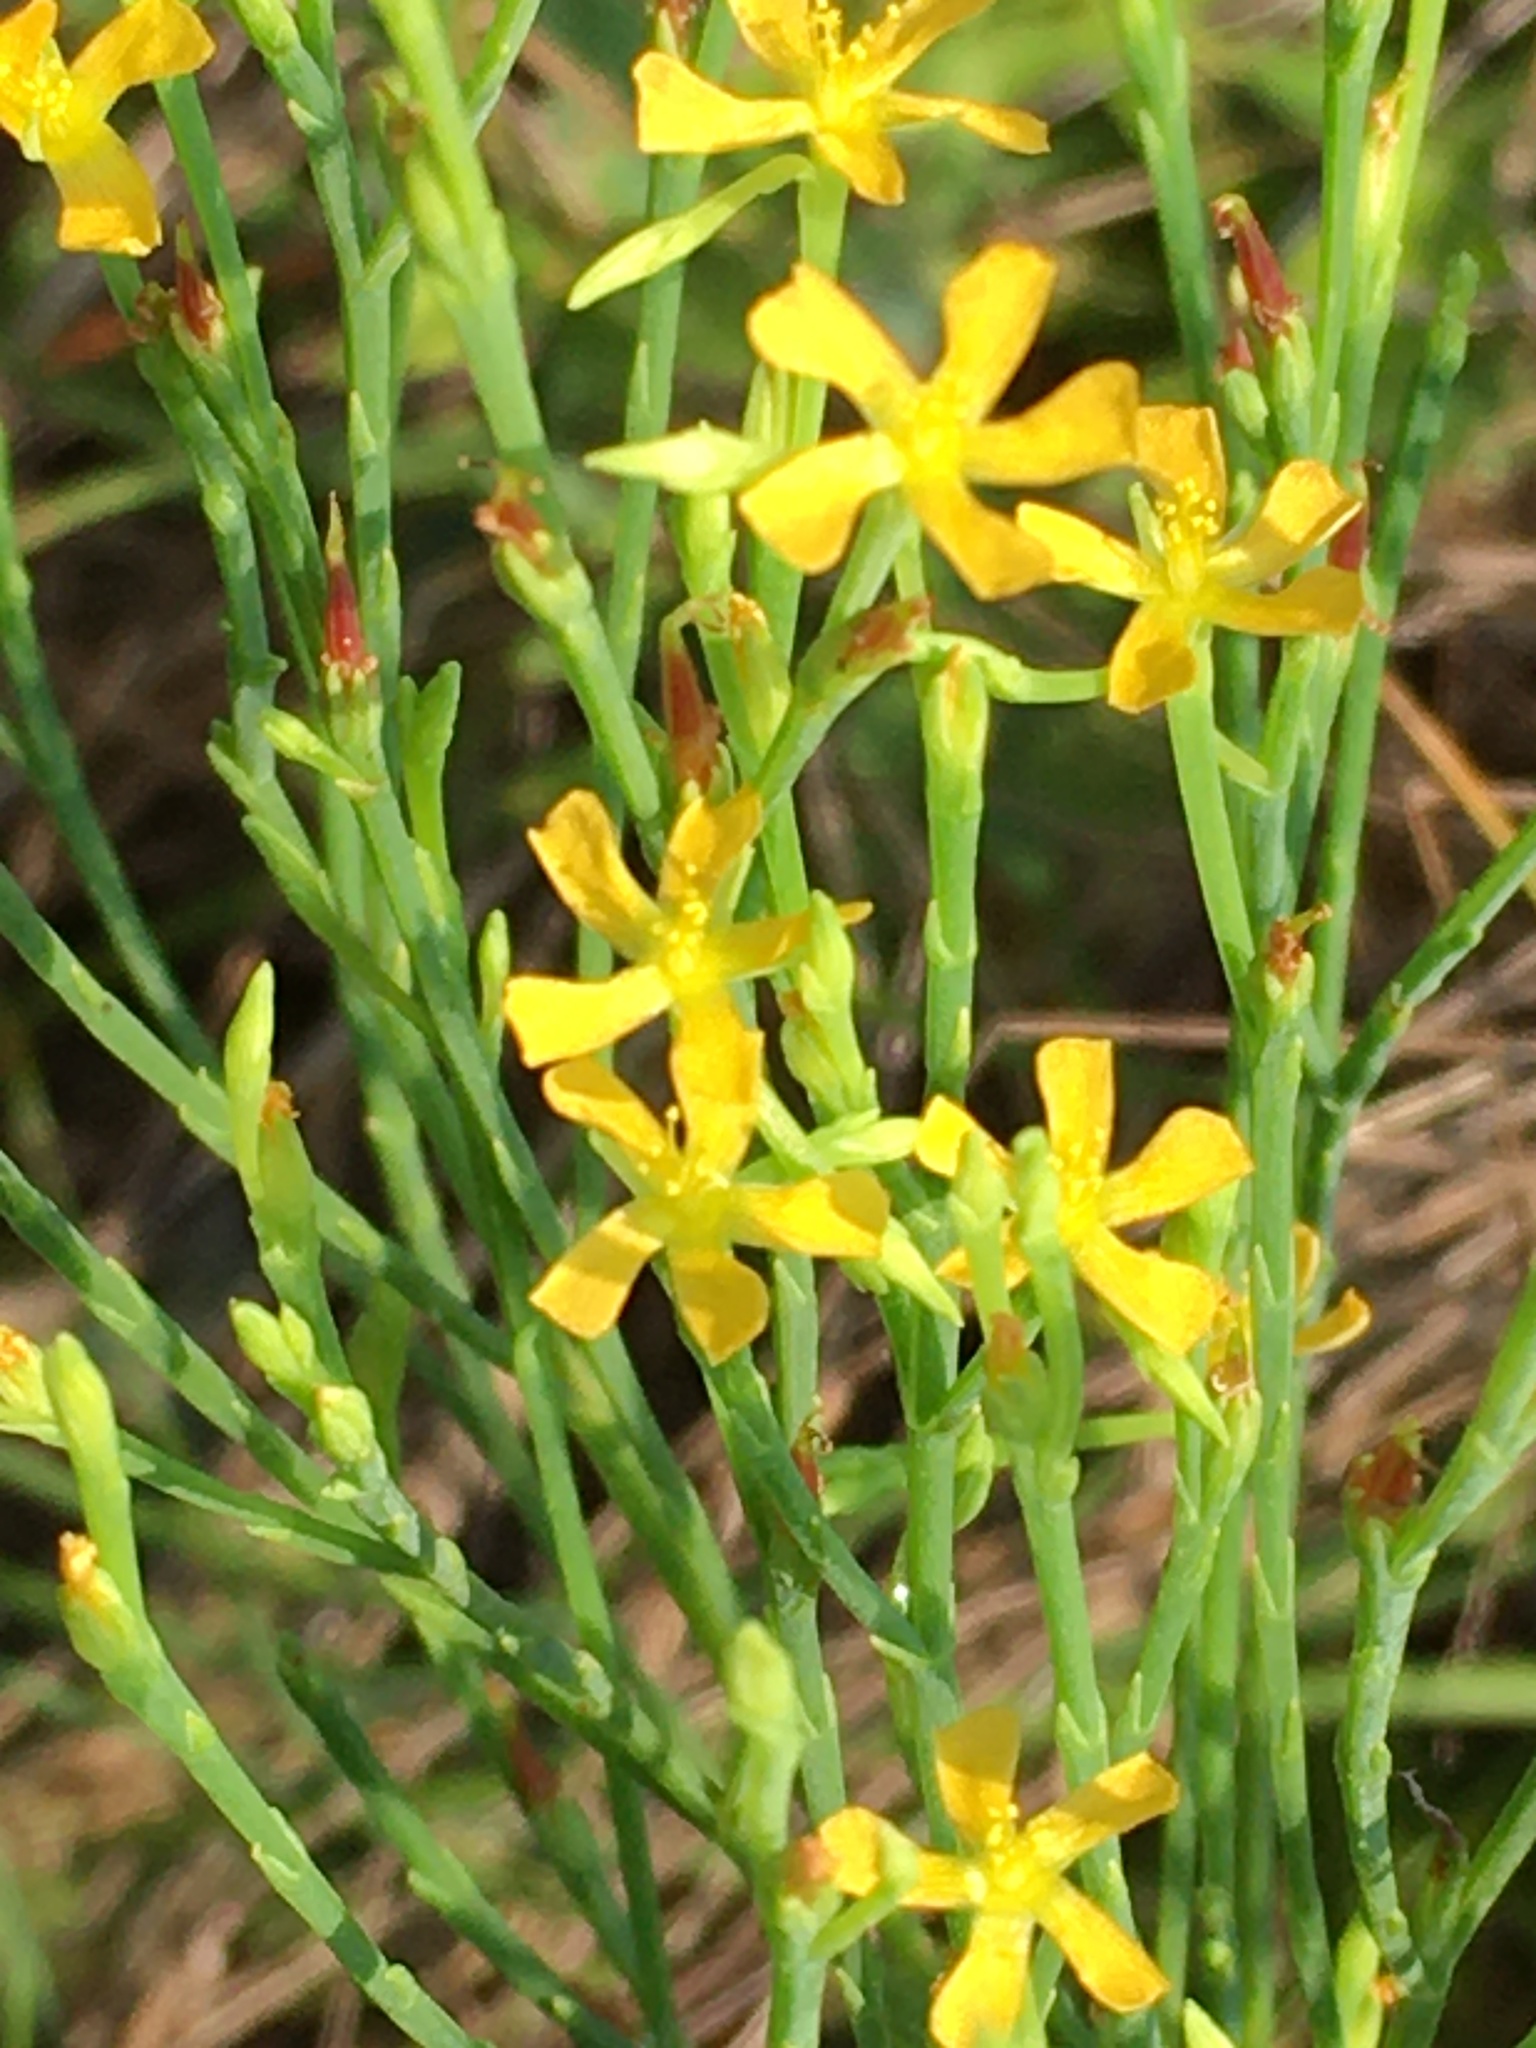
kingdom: Plantae
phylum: Tracheophyta
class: Magnoliopsida
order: Malpighiales
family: Hypericaceae
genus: Hypericum
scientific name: Hypericum gentianoides
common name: Gentian-leaved st. john's-wort
